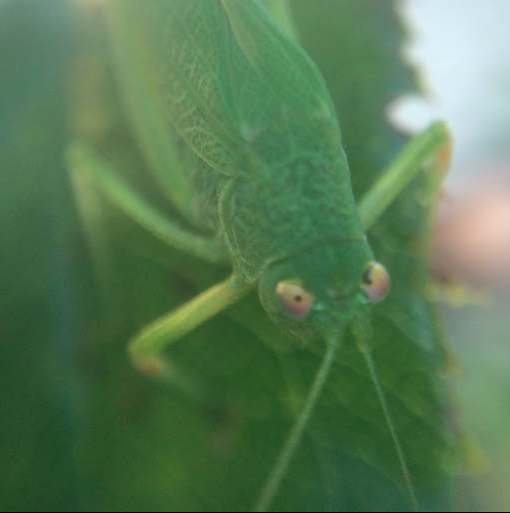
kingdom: Animalia
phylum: Arthropoda
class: Insecta
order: Orthoptera
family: Tettigoniidae
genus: Phaneroptera
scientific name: Phaneroptera nana
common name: Southern sickle bush-cricket
